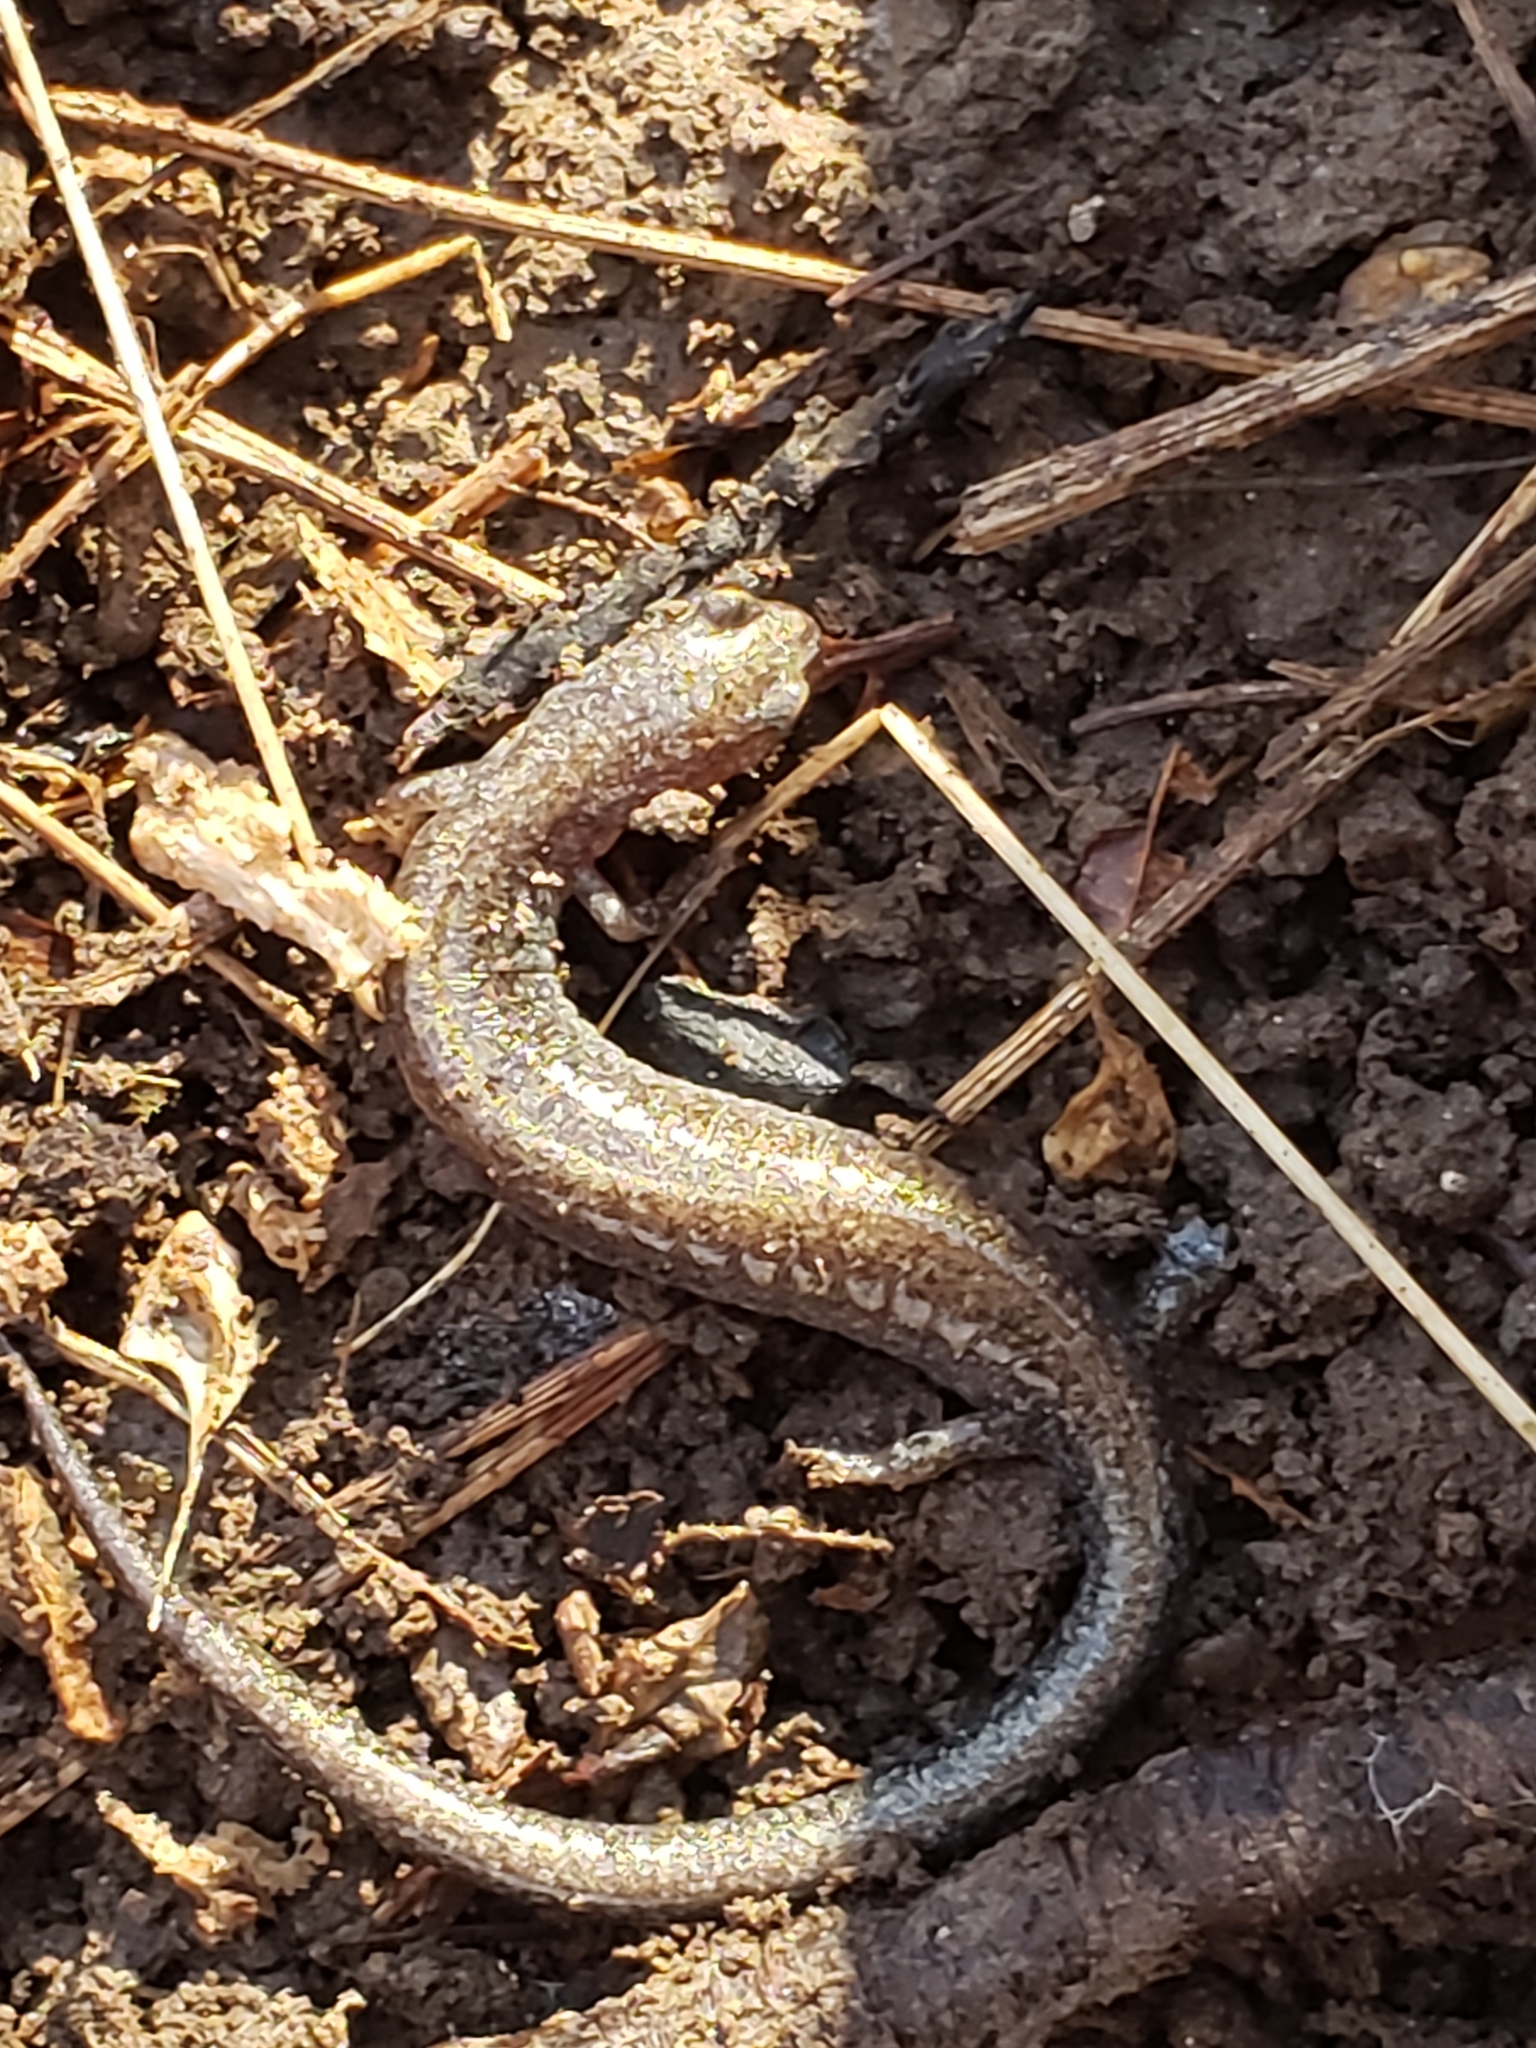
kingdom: Animalia
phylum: Chordata
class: Amphibia
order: Caudata
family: Plethodontidae
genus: Plethodon
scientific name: Plethodon cinereus
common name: Redback salamander
